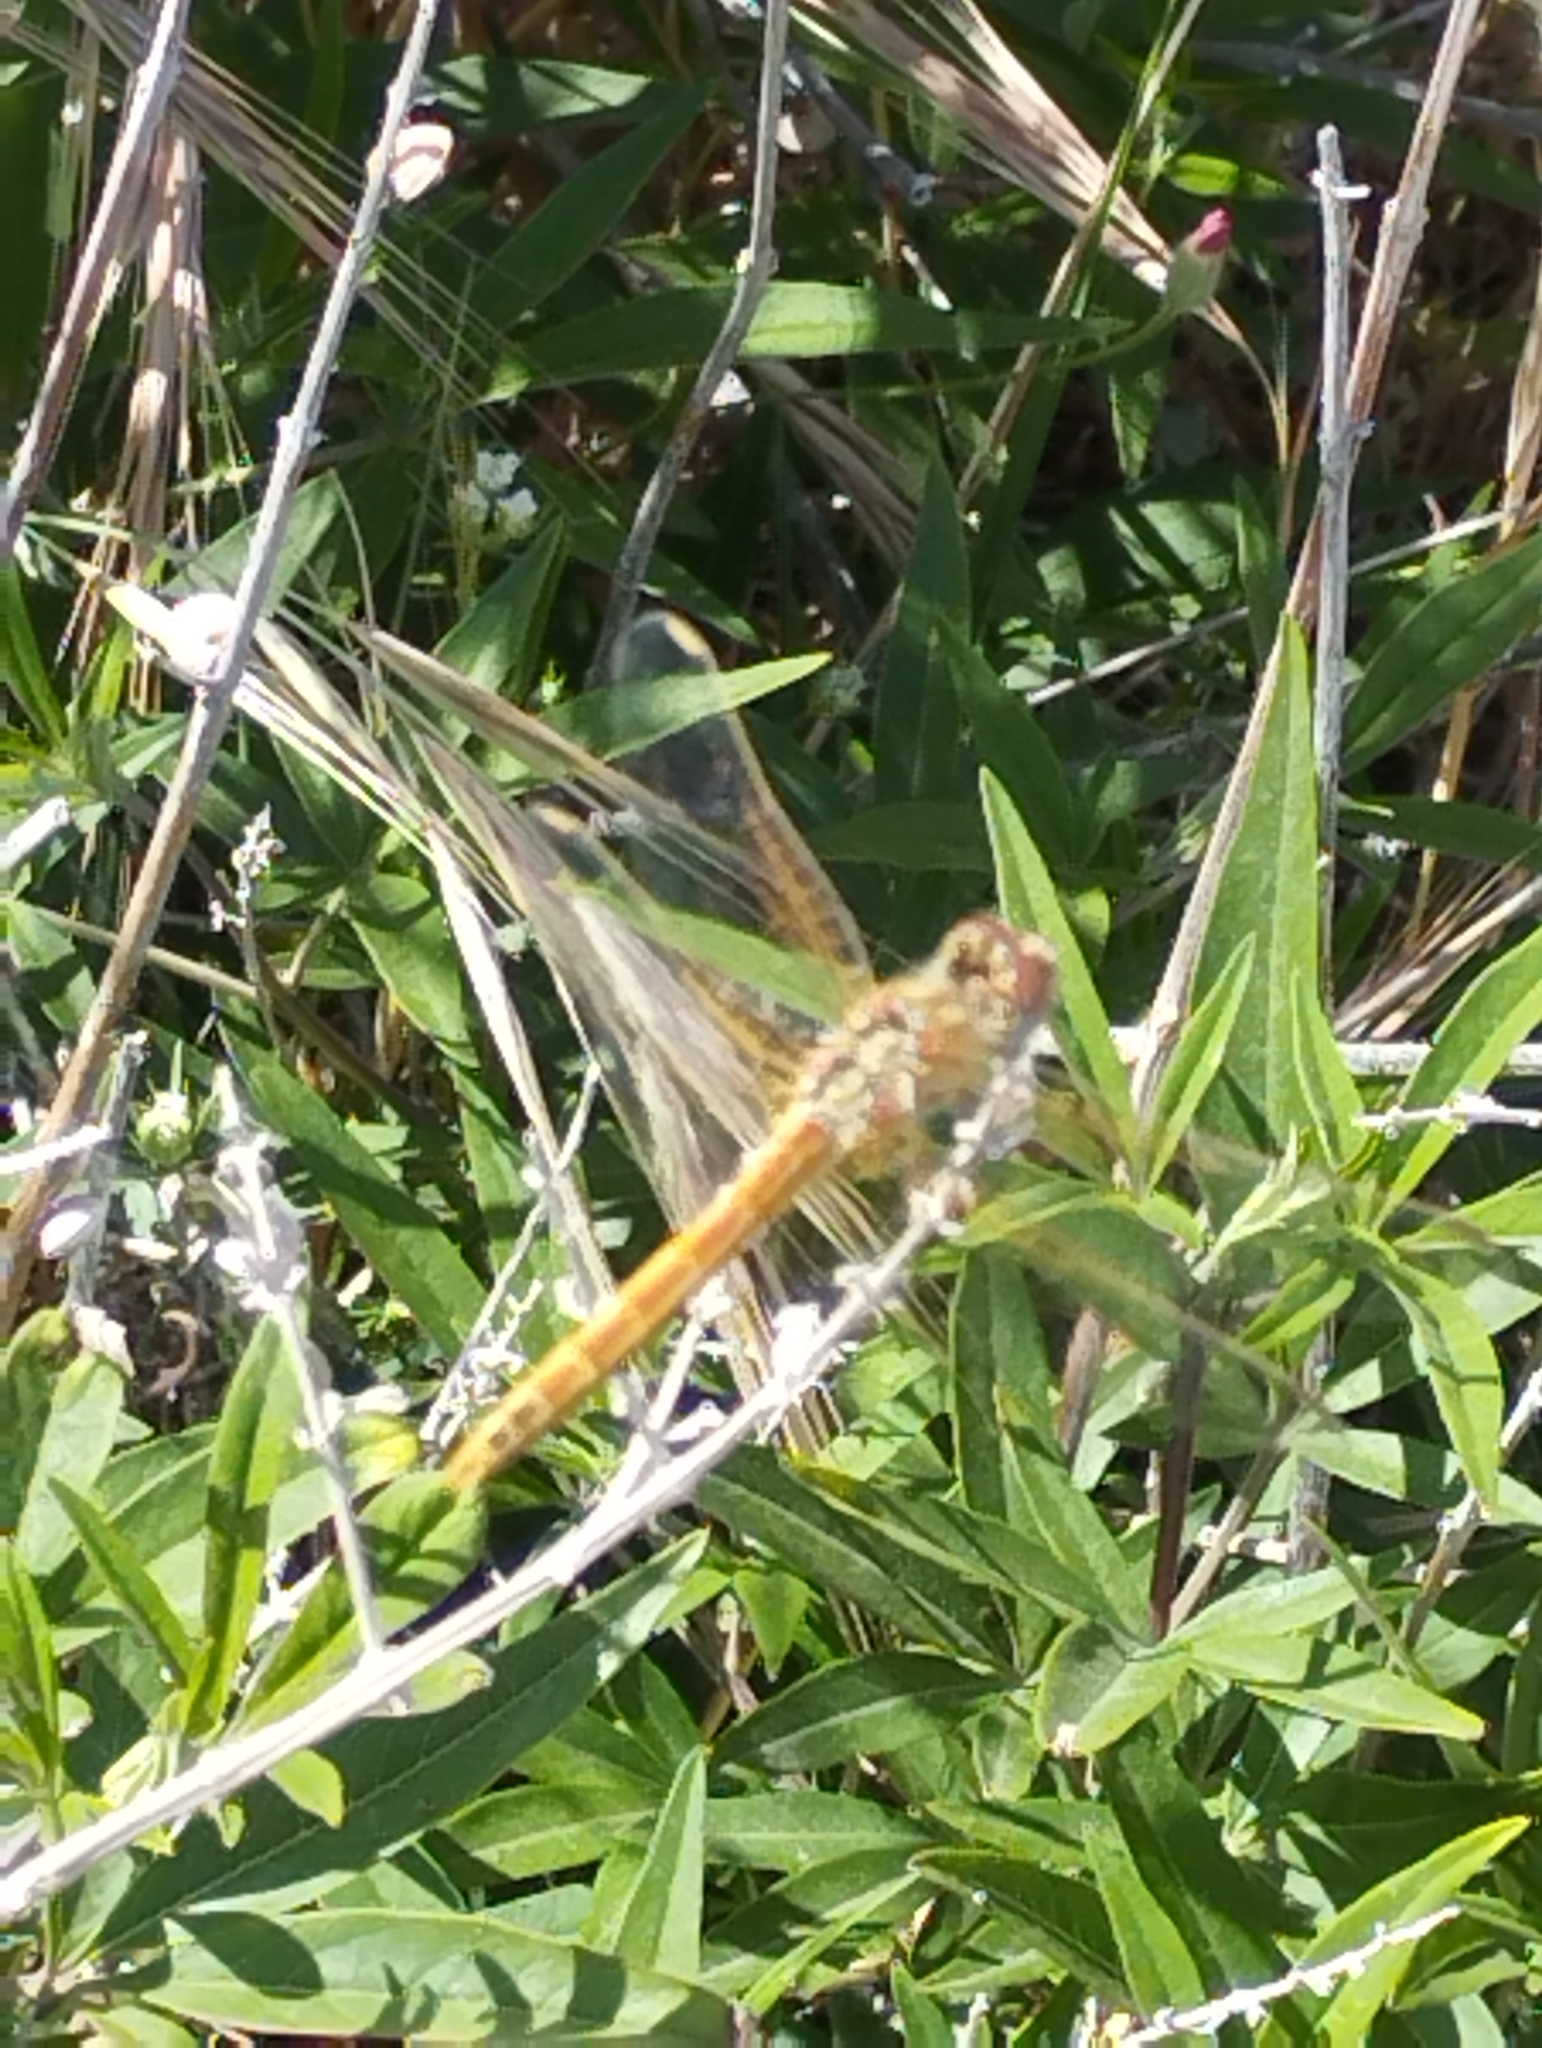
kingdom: Animalia
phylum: Arthropoda
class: Insecta
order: Odonata
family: Libellulidae
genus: Sympetrum
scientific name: Sympetrum fonscolombii
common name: Red-veined darter
